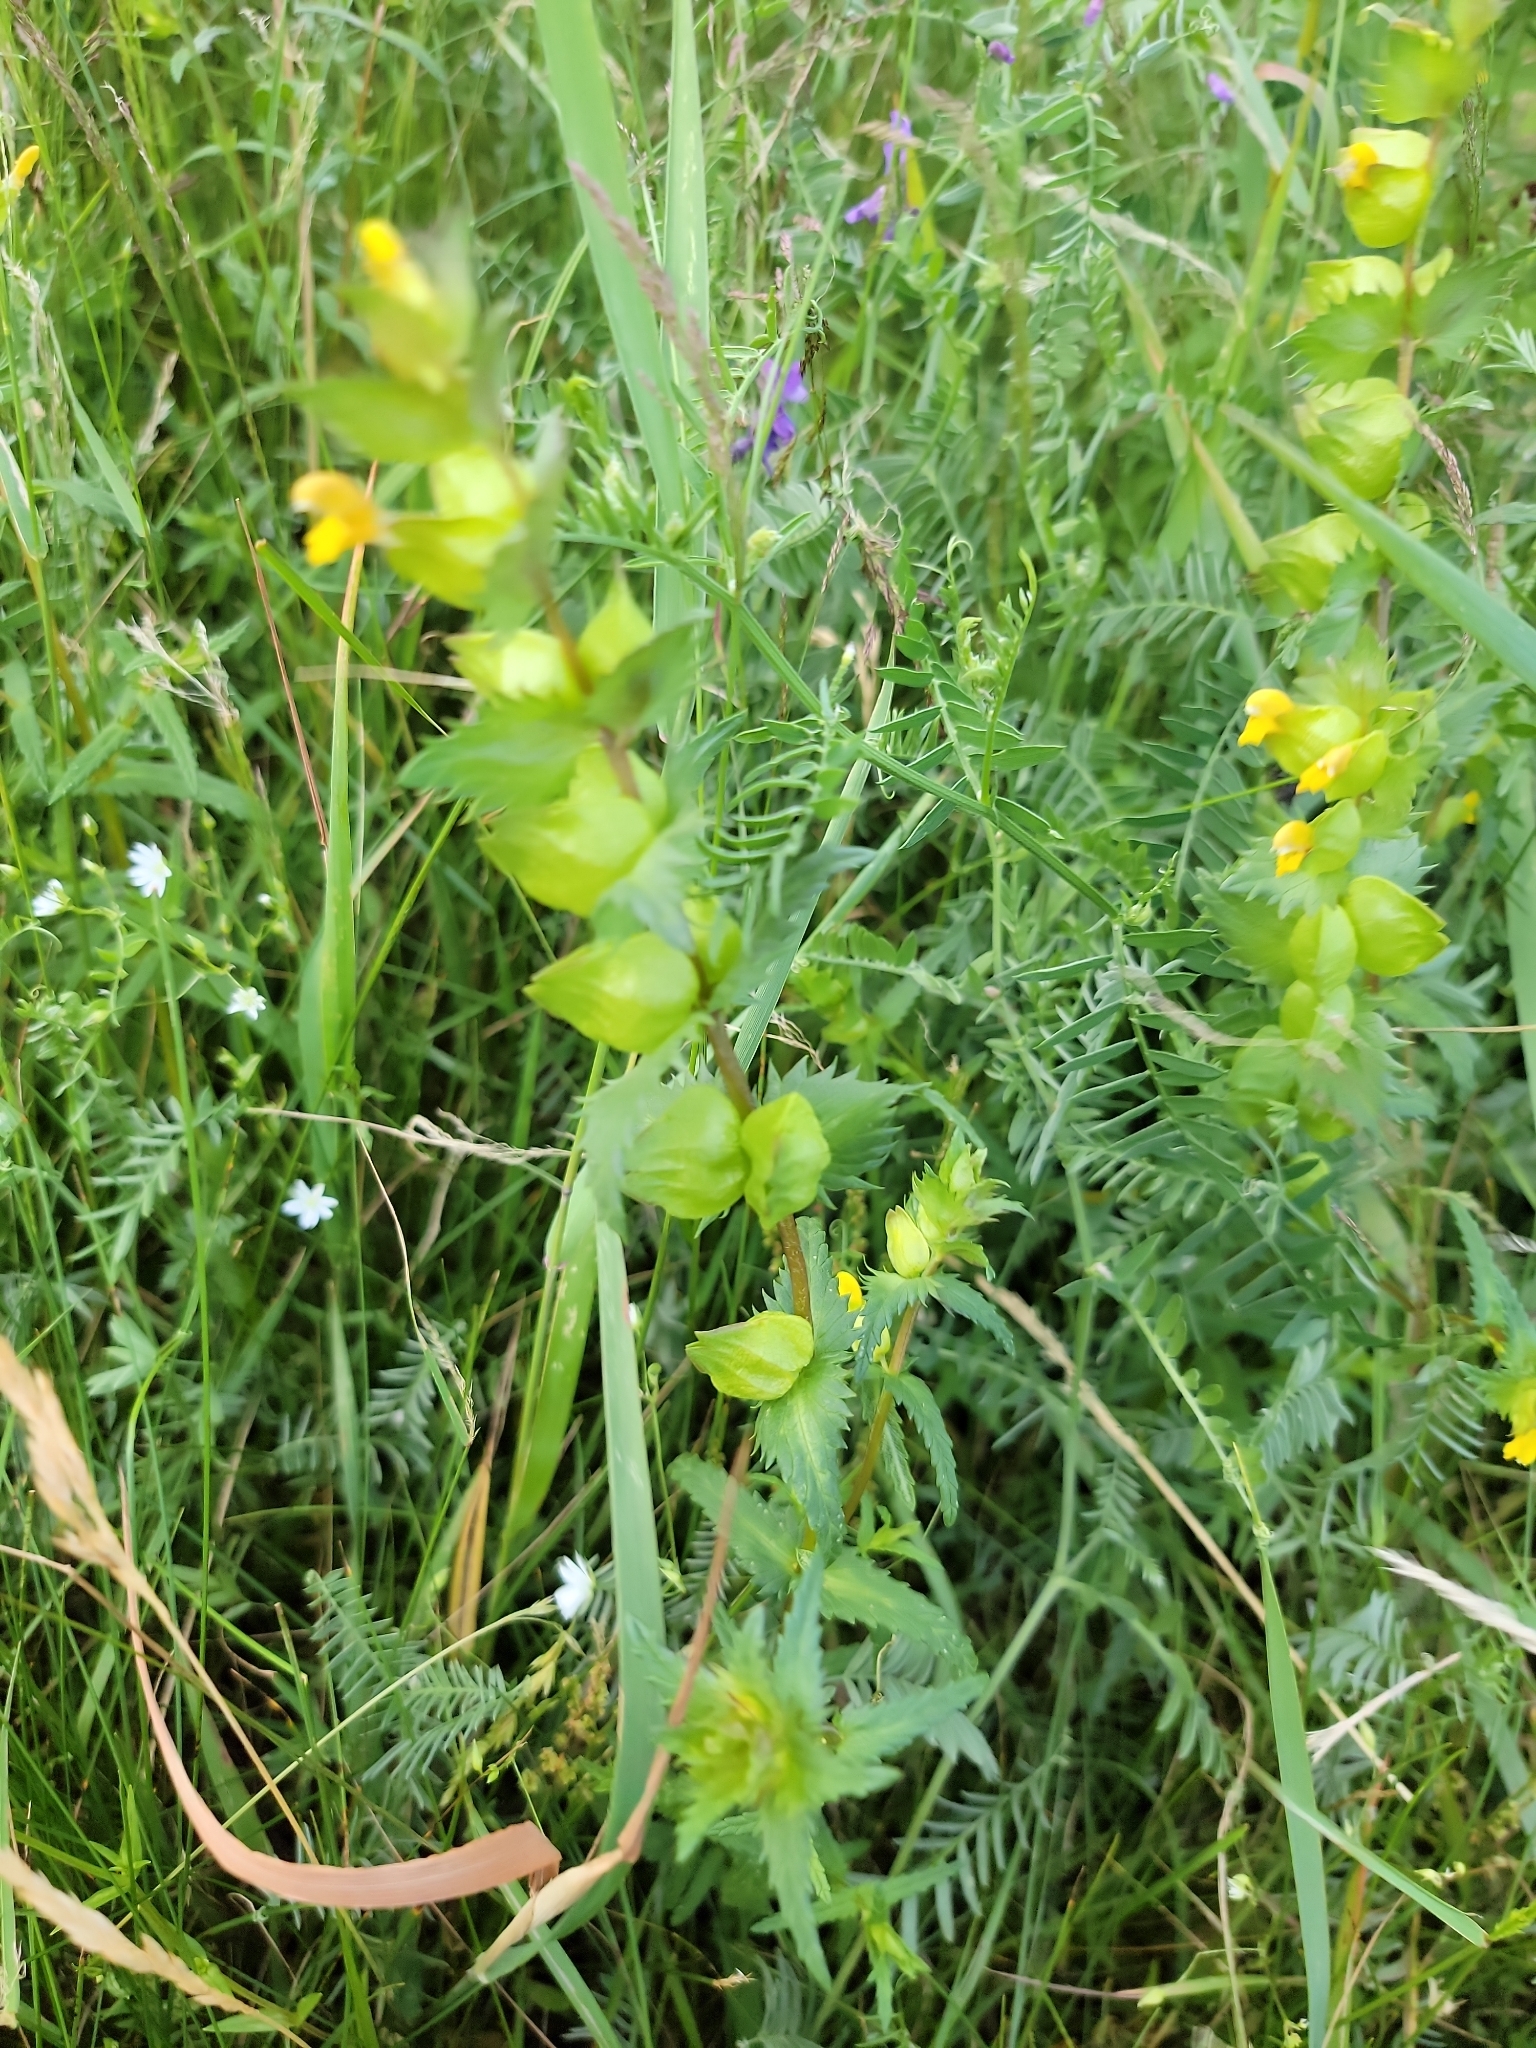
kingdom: Plantae
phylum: Tracheophyta
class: Magnoliopsida
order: Lamiales
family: Orobanchaceae
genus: Rhinanthus
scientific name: Rhinanthus minor
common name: Yellow-rattle
